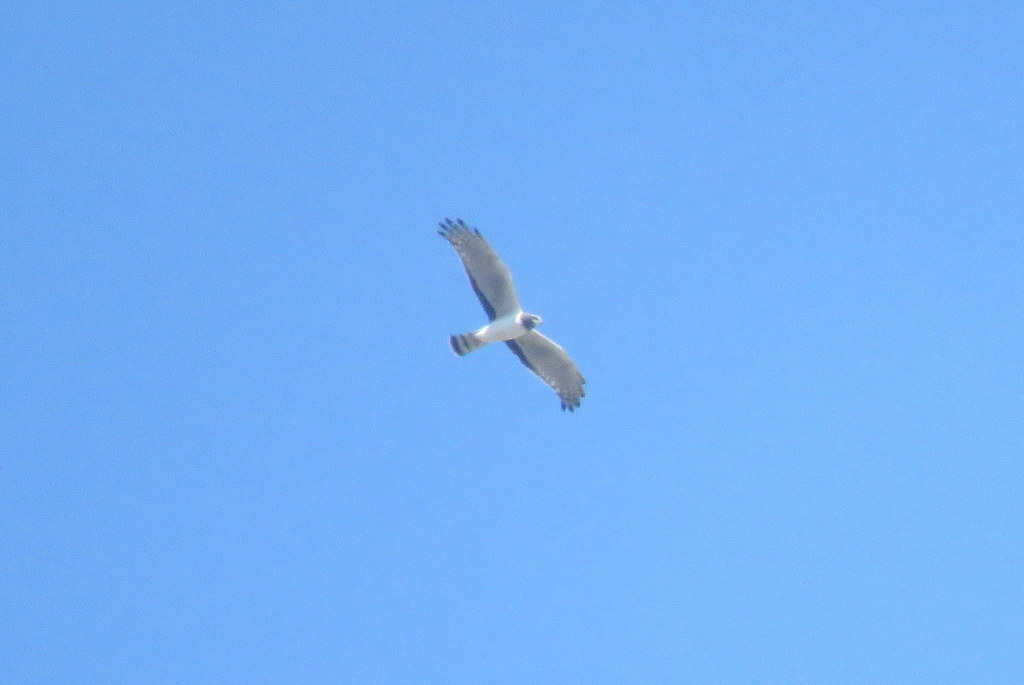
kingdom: Animalia
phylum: Chordata
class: Aves
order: Accipitriformes
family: Accipitridae
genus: Circus
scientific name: Circus buffoni
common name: Long-winged harrier
